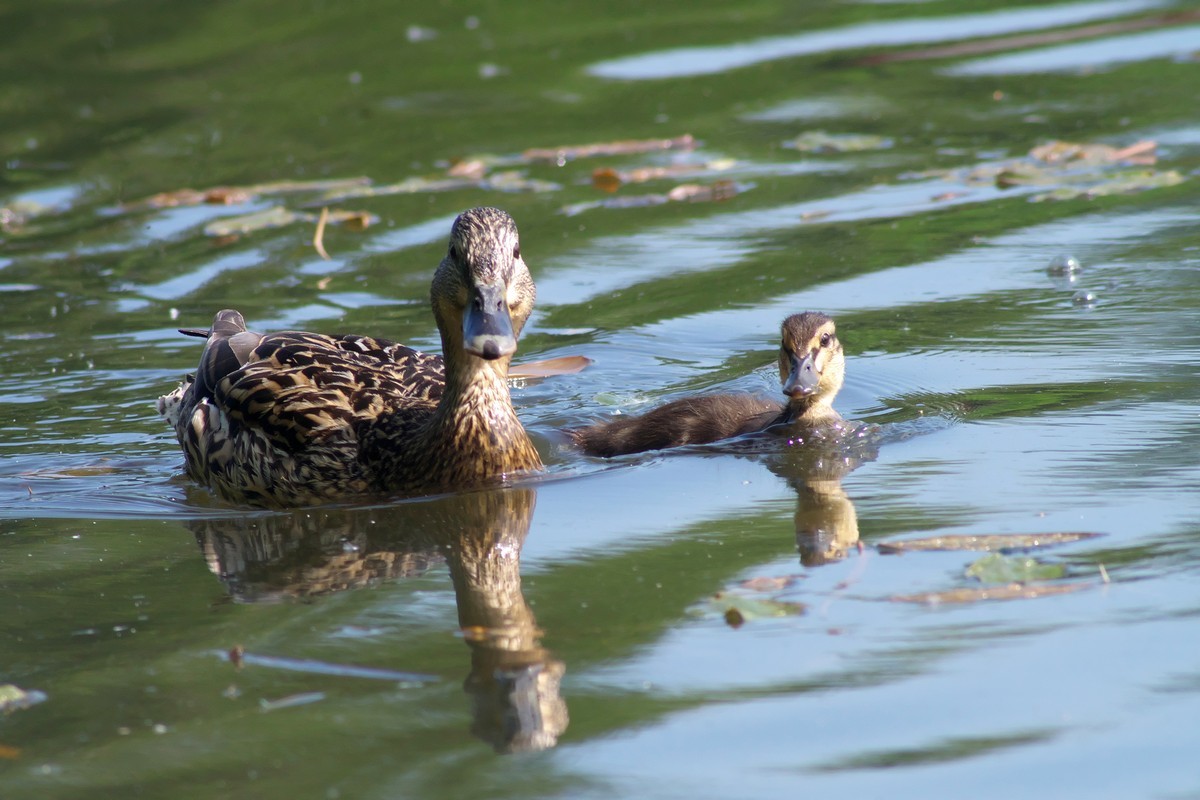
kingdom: Animalia
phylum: Chordata
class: Aves
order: Anseriformes
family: Anatidae
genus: Anas
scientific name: Anas platyrhynchos
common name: Mallard
